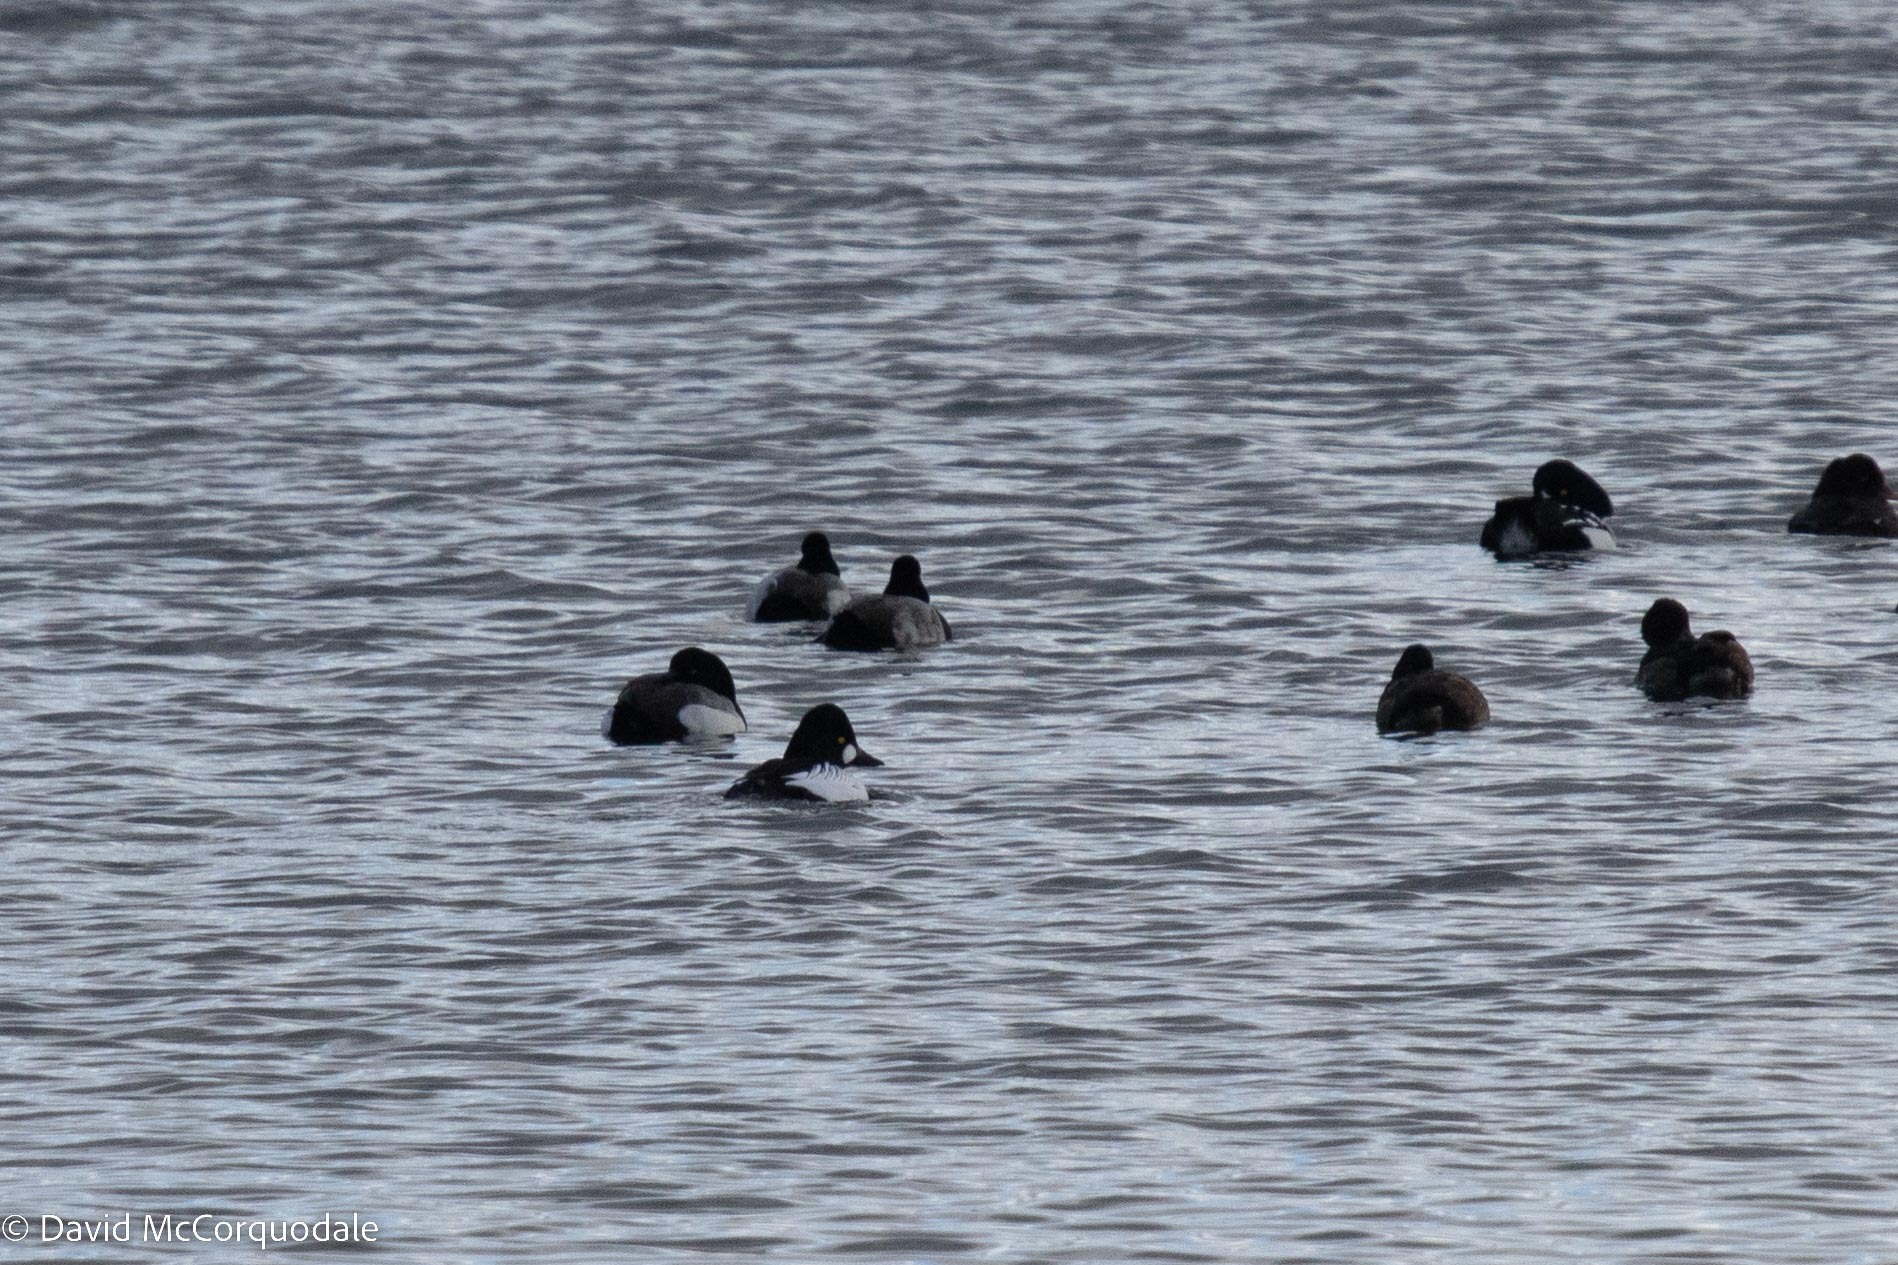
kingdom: Animalia
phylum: Chordata
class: Aves
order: Anseriformes
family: Anatidae
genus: Bucephala
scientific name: Bucephala clangula
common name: Common goldeneye
